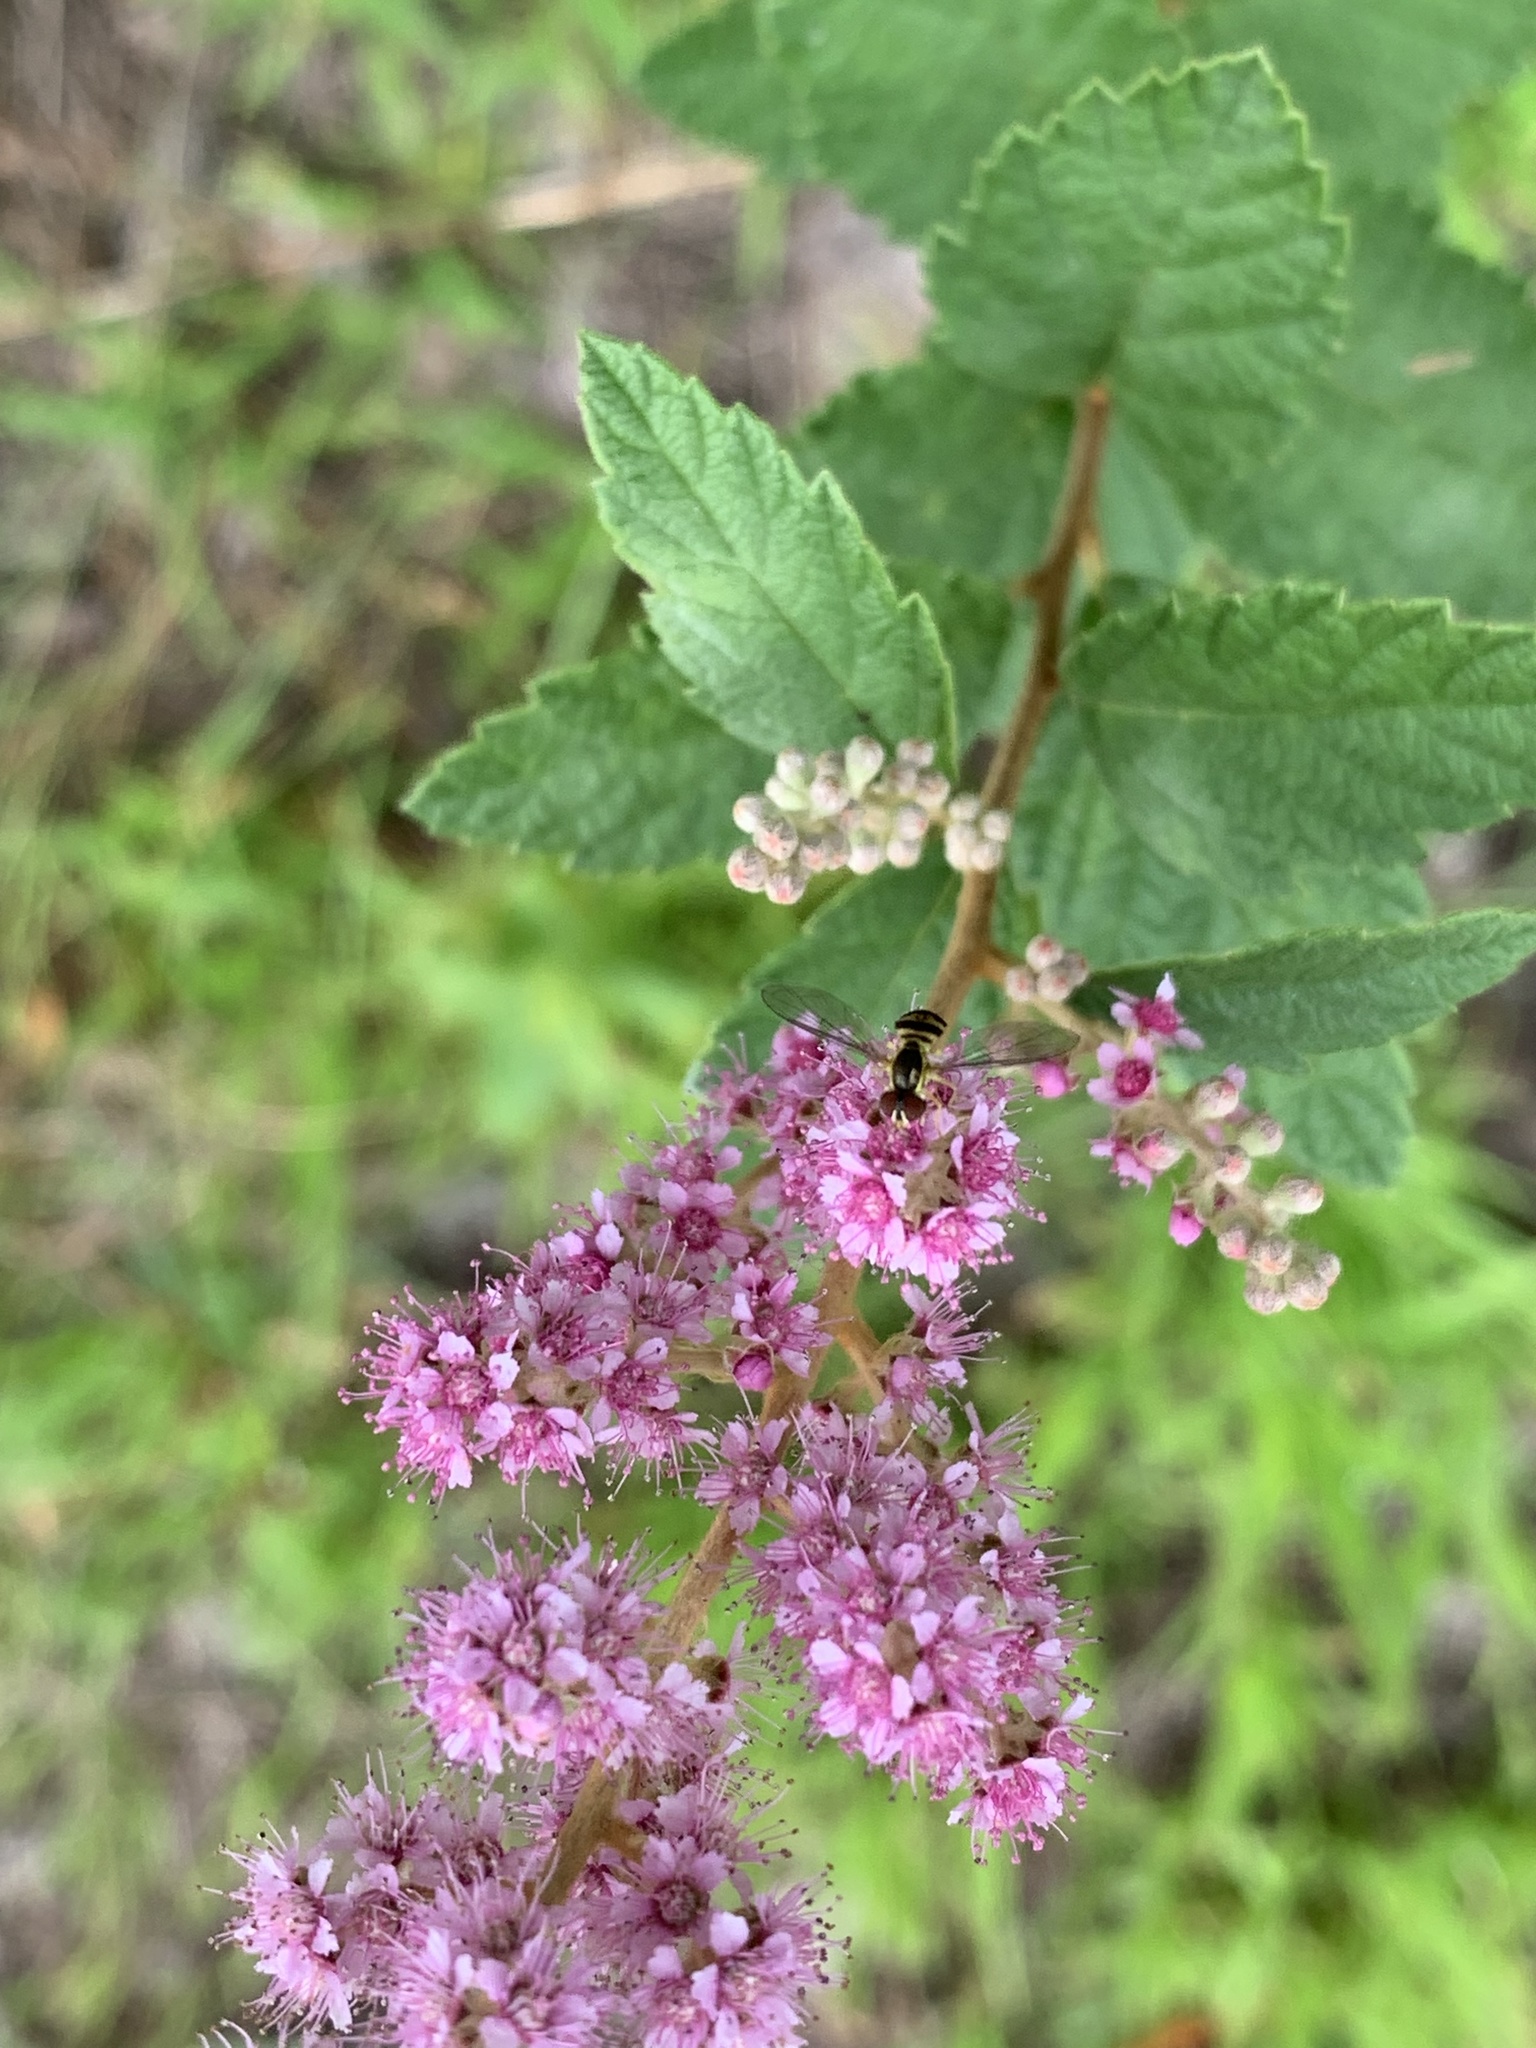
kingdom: Animalia
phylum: Arthropoda
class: Insecta
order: Diptera
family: Syrphidae
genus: Toxomerus
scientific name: Toxomerus geminatus
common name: Eastern calligrapher
